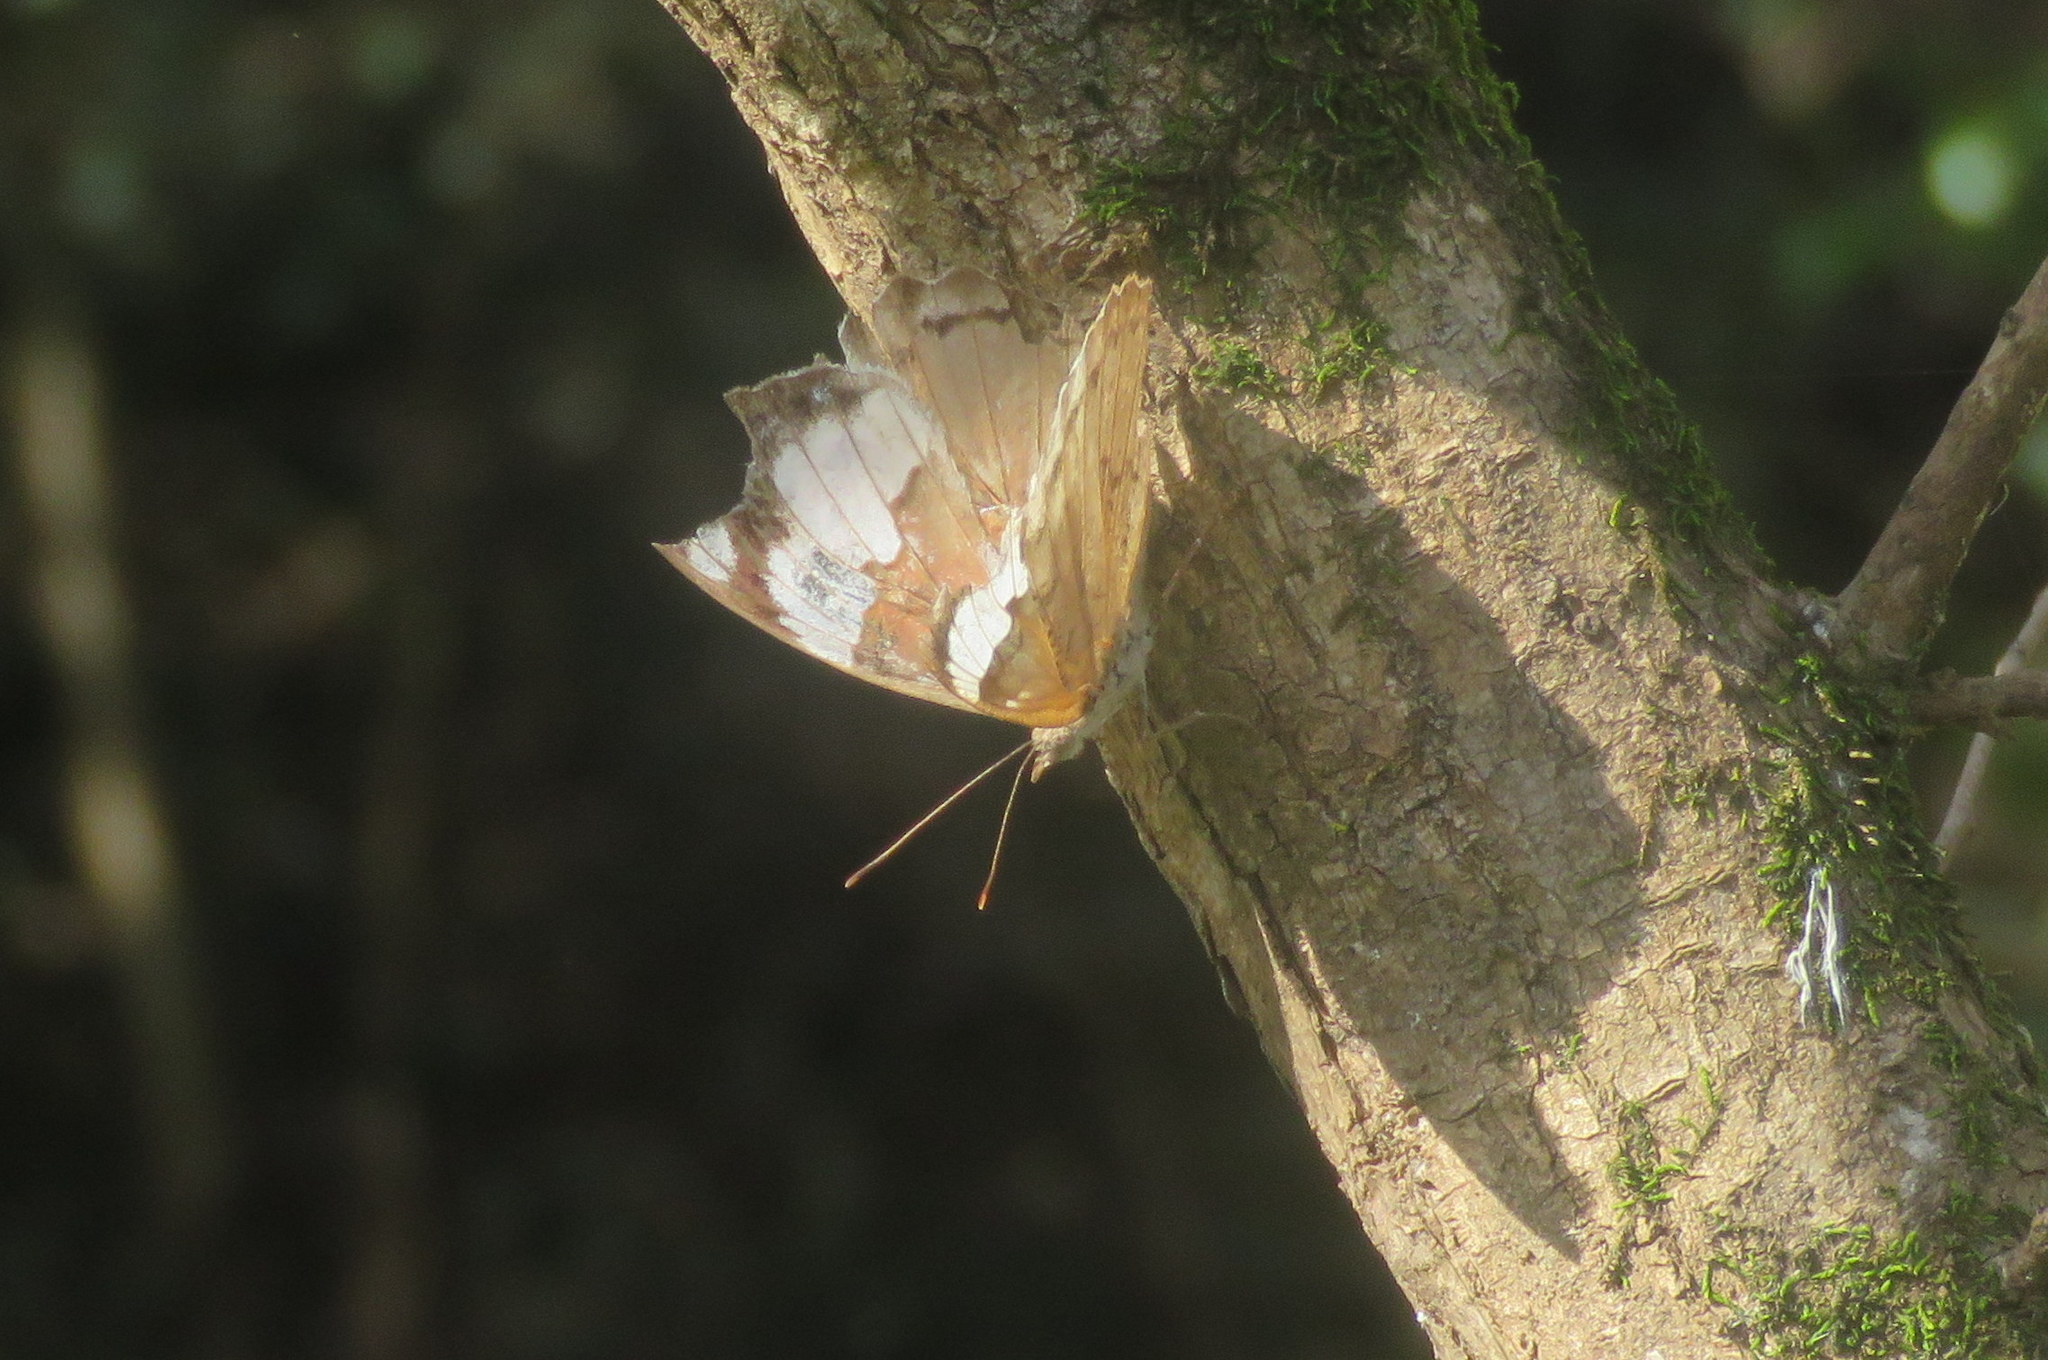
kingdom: Animalia
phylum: Arthropoda
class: Insecta
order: Lepidoptera
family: Nymphalidae
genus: Eunica
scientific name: Eunica eburnea
